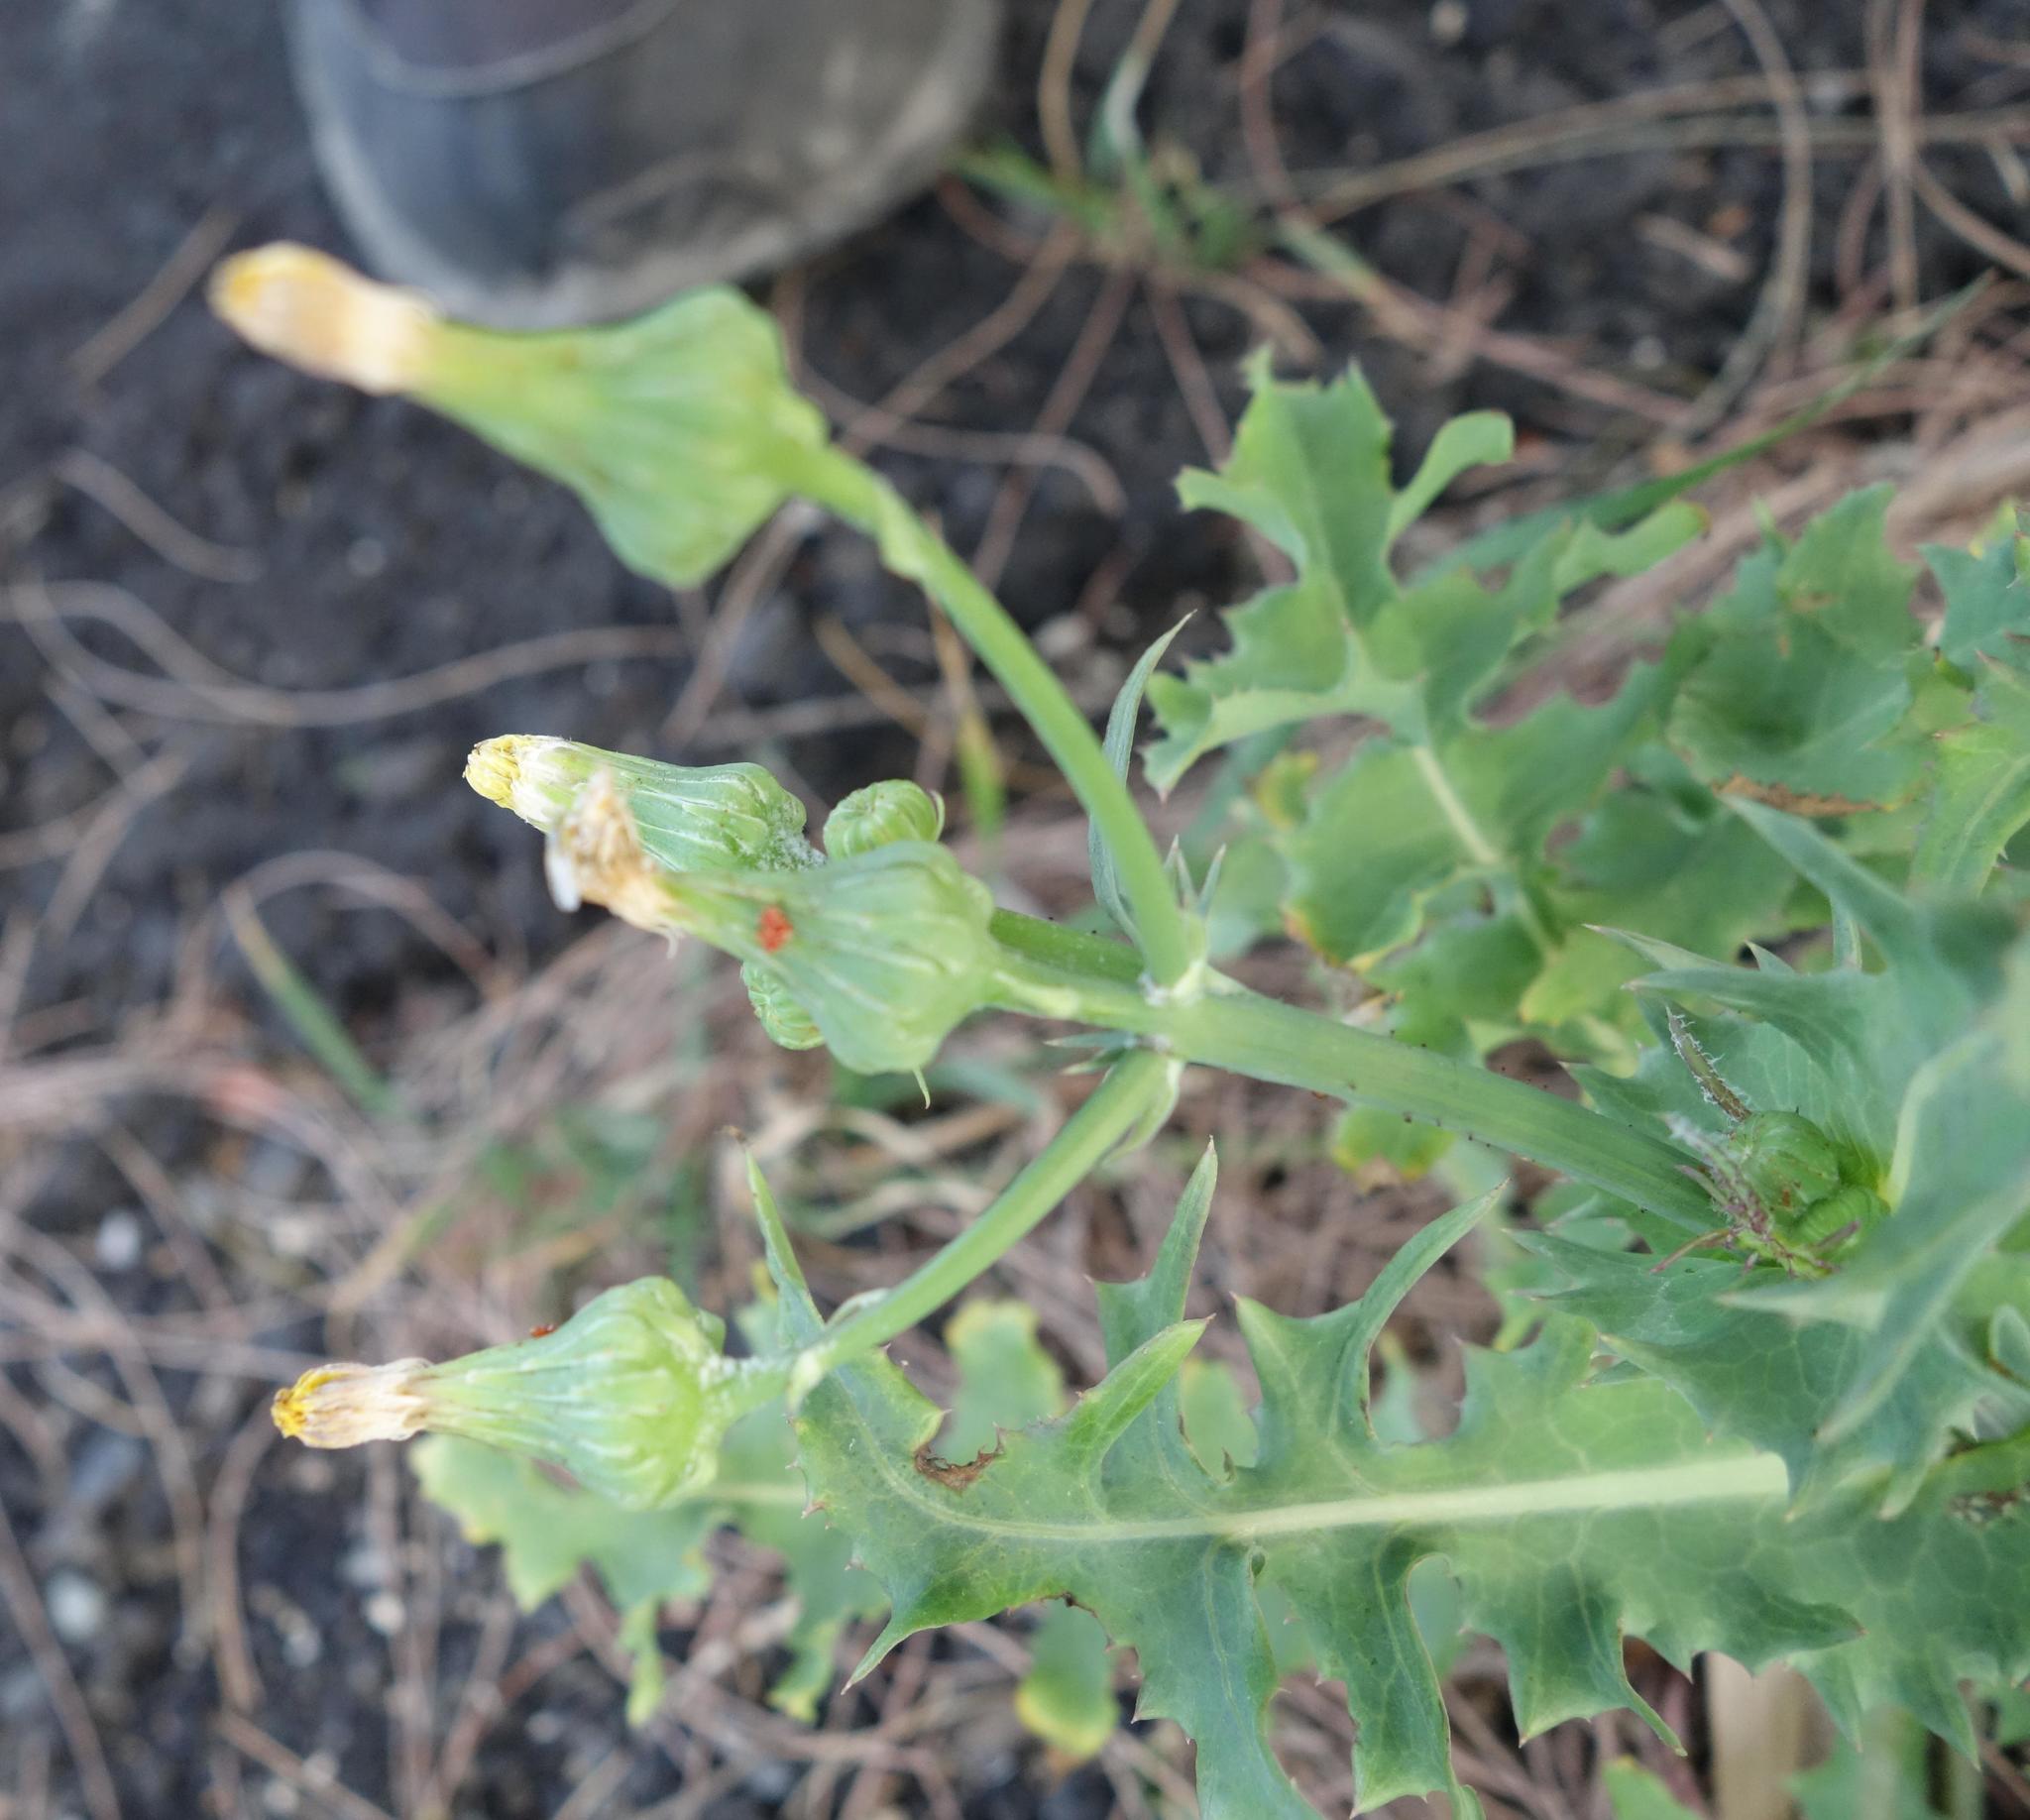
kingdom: Plantae
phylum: Tracheophyta
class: Magnoliopsida
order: Asterales
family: Asteraceae
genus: Sonchus
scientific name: Sonchus oleraceus
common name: Common sowthistle
